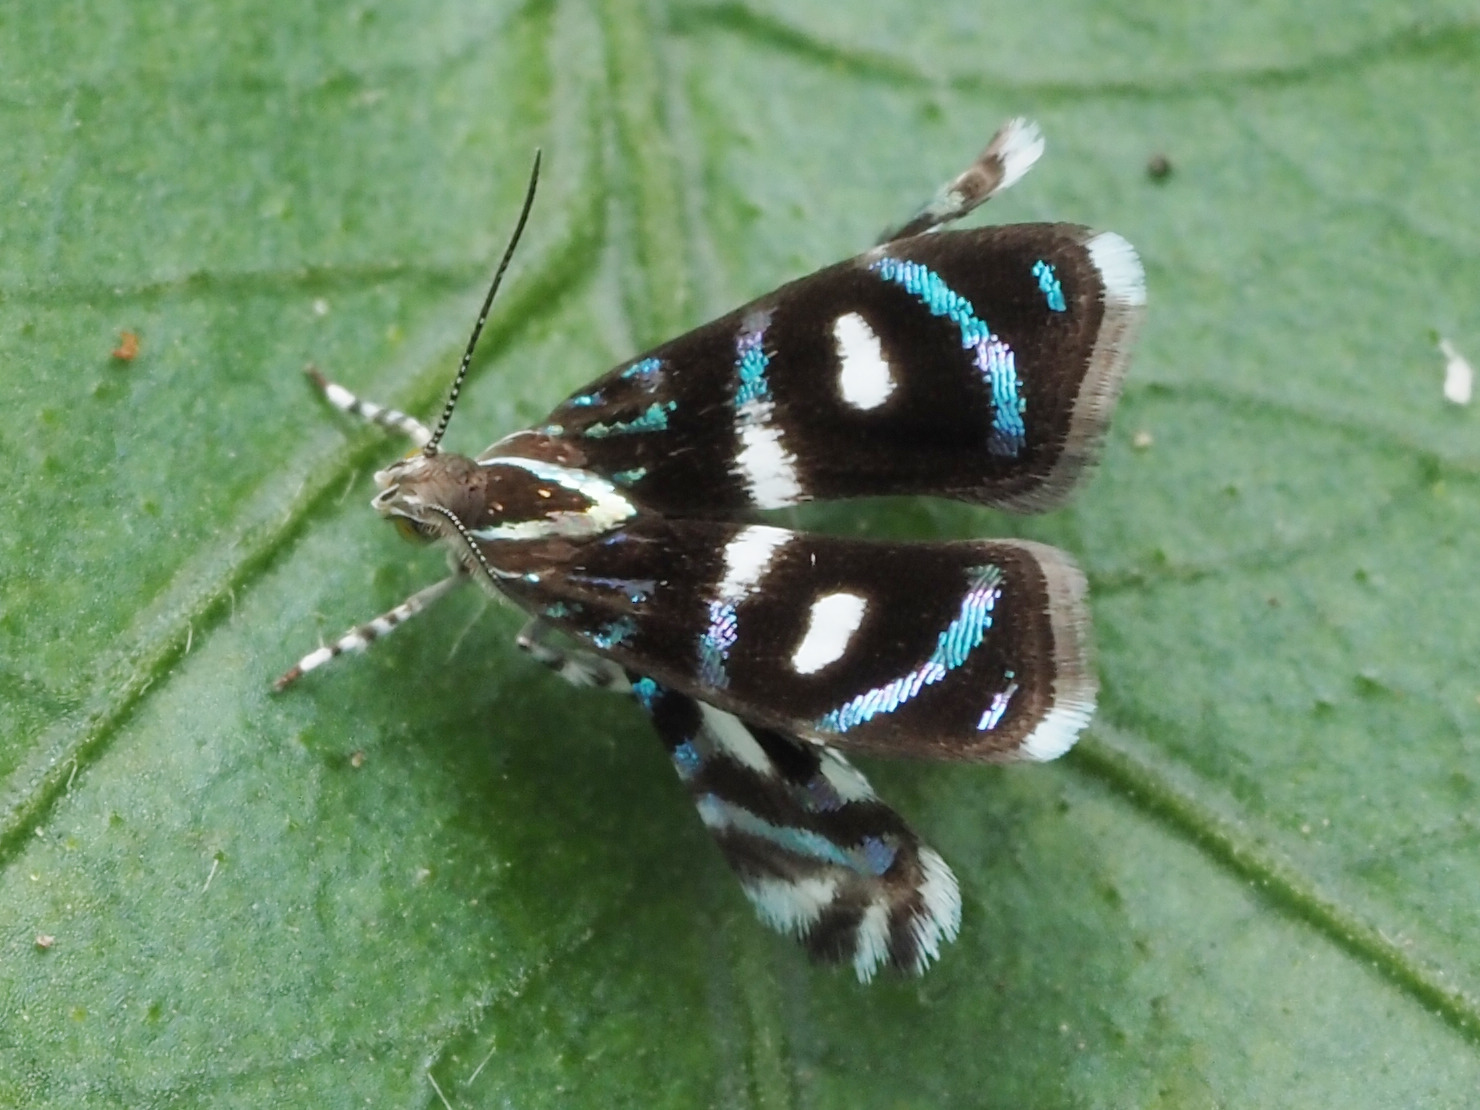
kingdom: Animalia
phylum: Arthropoda
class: Insecta
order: Lepidoptera
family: Choreutidae
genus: Brenthia
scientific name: Brenthia hexaselena
